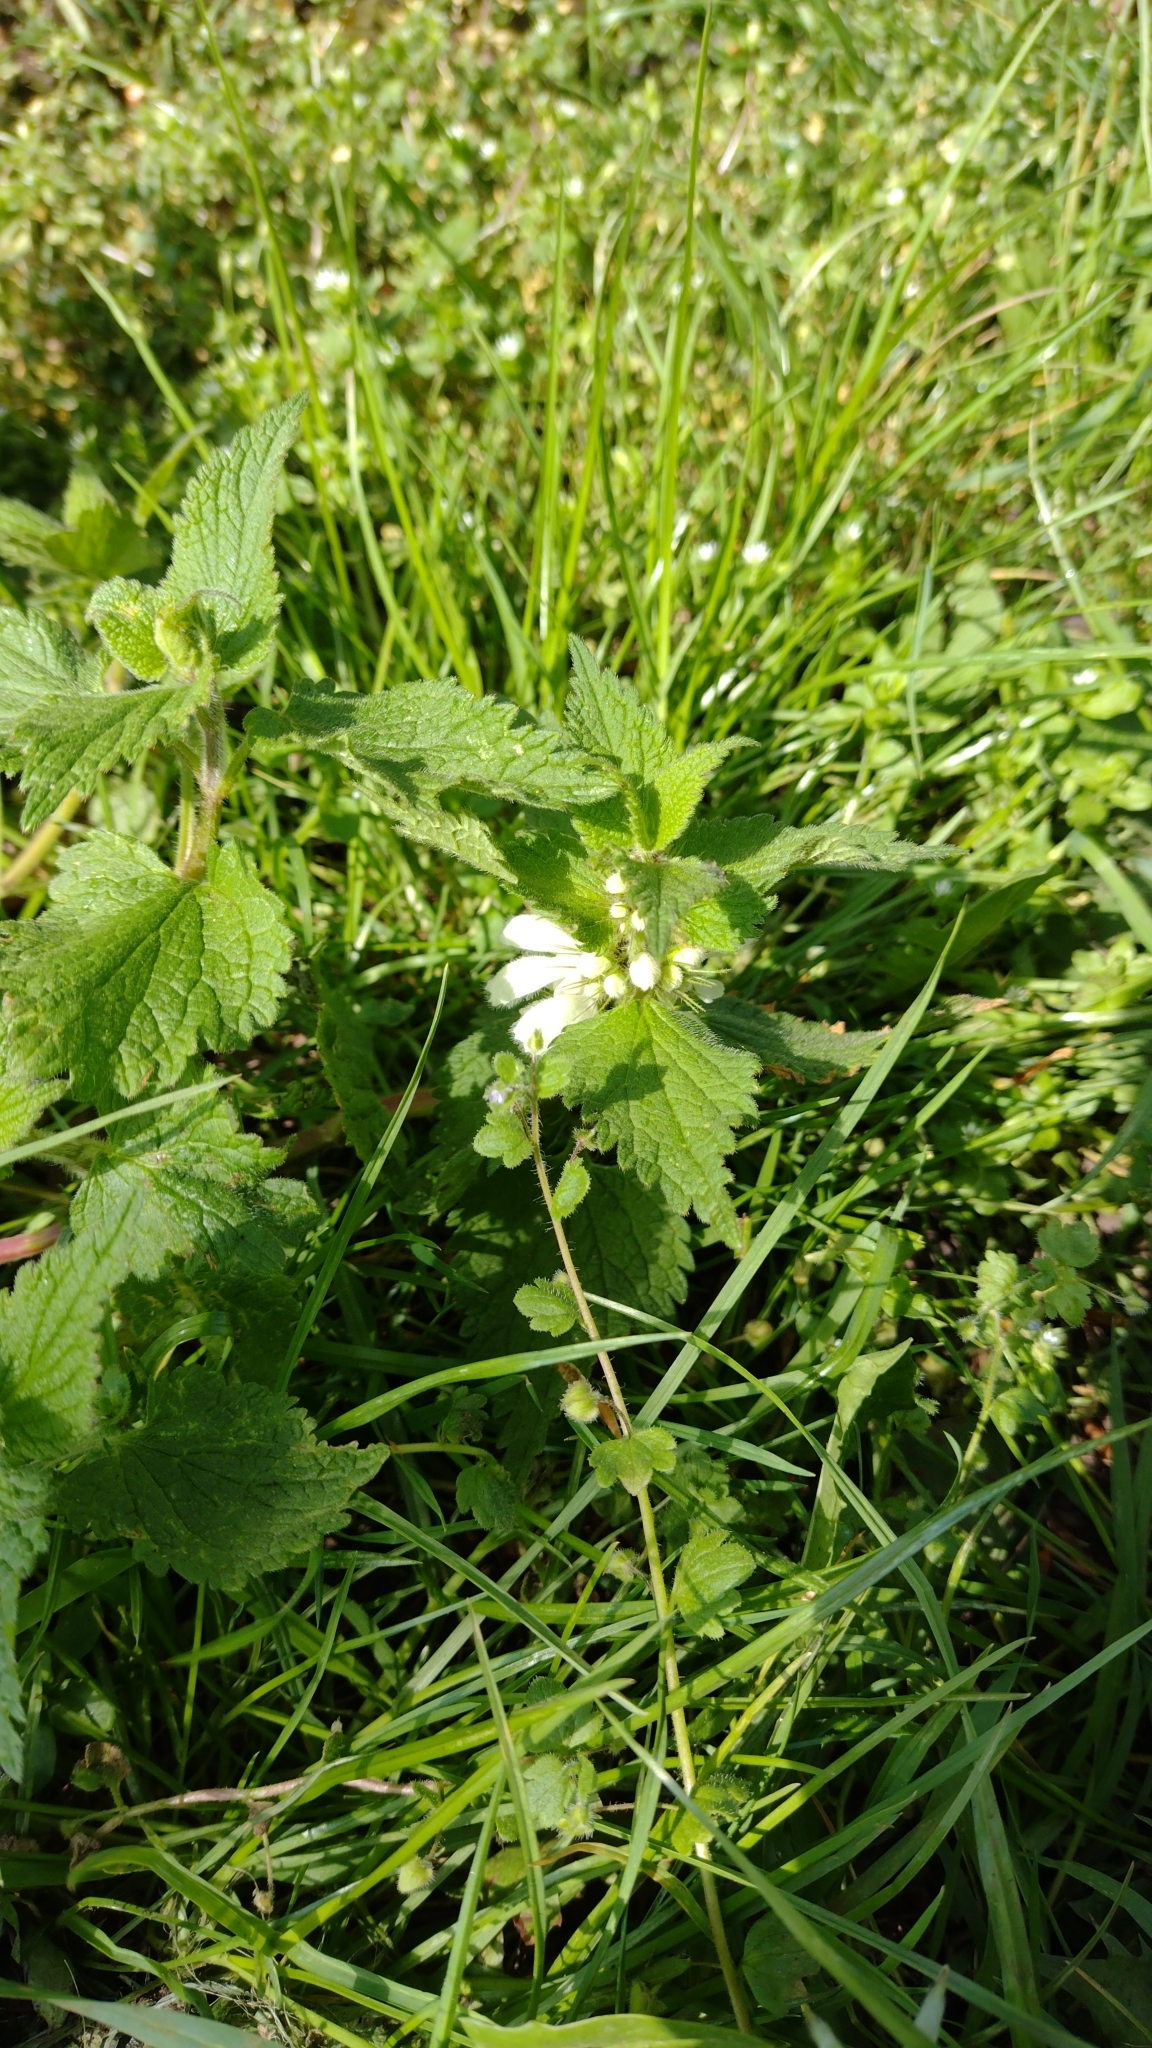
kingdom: Plantae
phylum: Tracheophyta
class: Magnoliopsida
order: Lamiales
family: Lamiaceae
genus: Lamium
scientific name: Lamium album
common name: White dead-nettle
